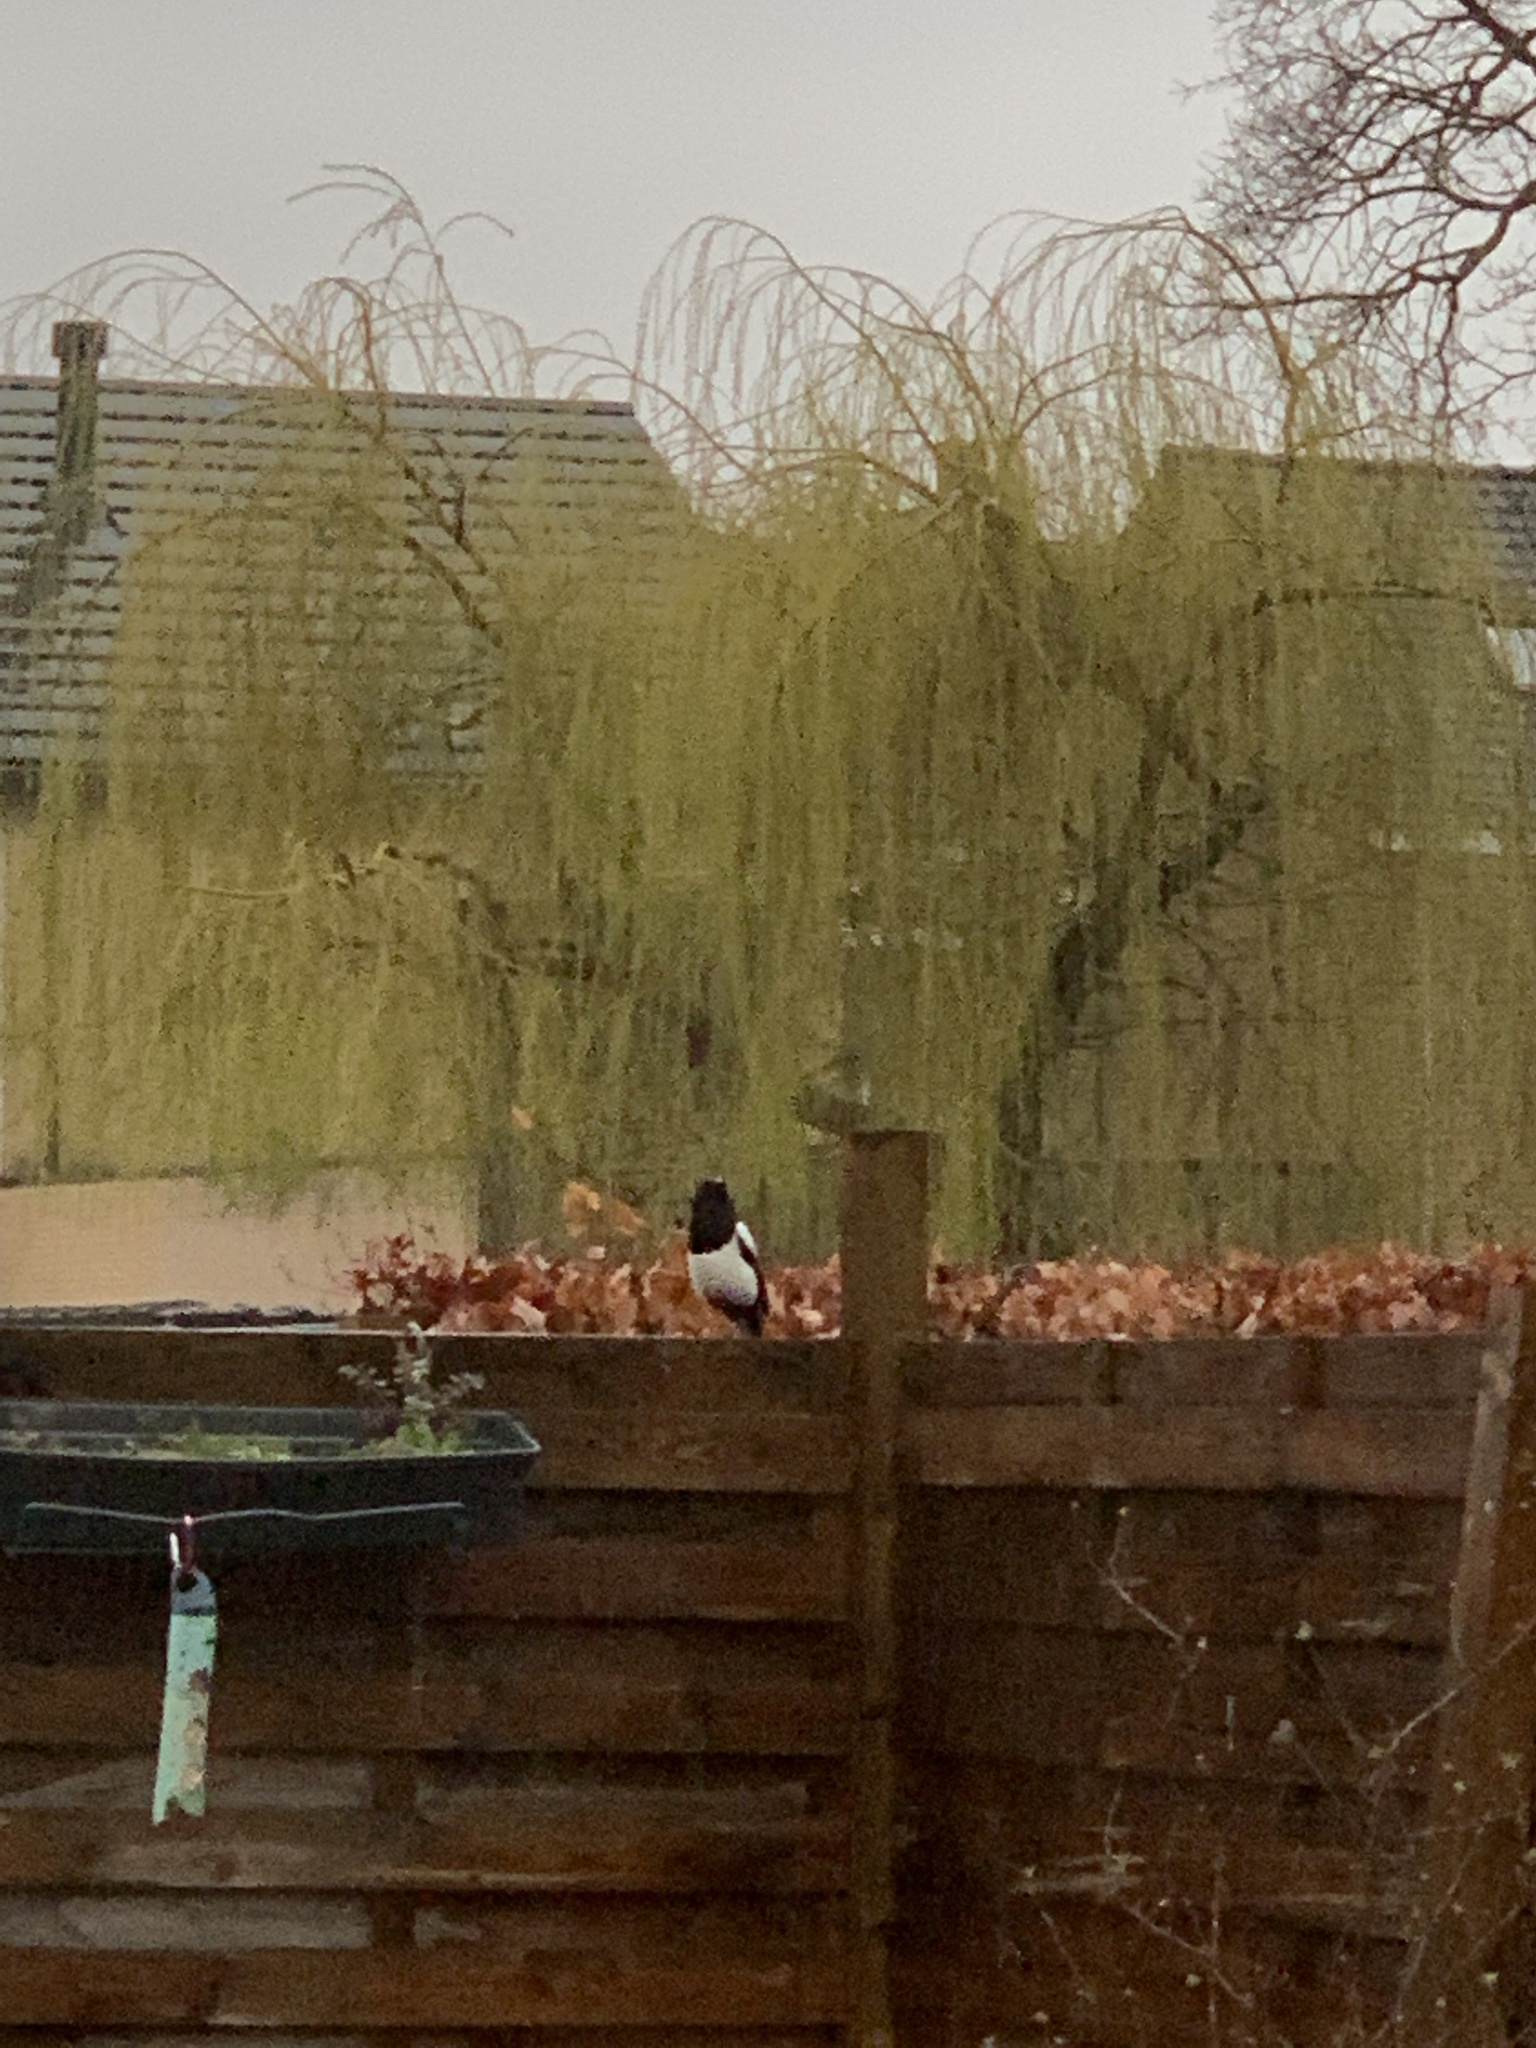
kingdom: Animalia
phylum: Chordata
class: Aves
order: Passeriformes
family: Corvidae
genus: Pica
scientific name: Pica pica
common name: Eurasian magpie
